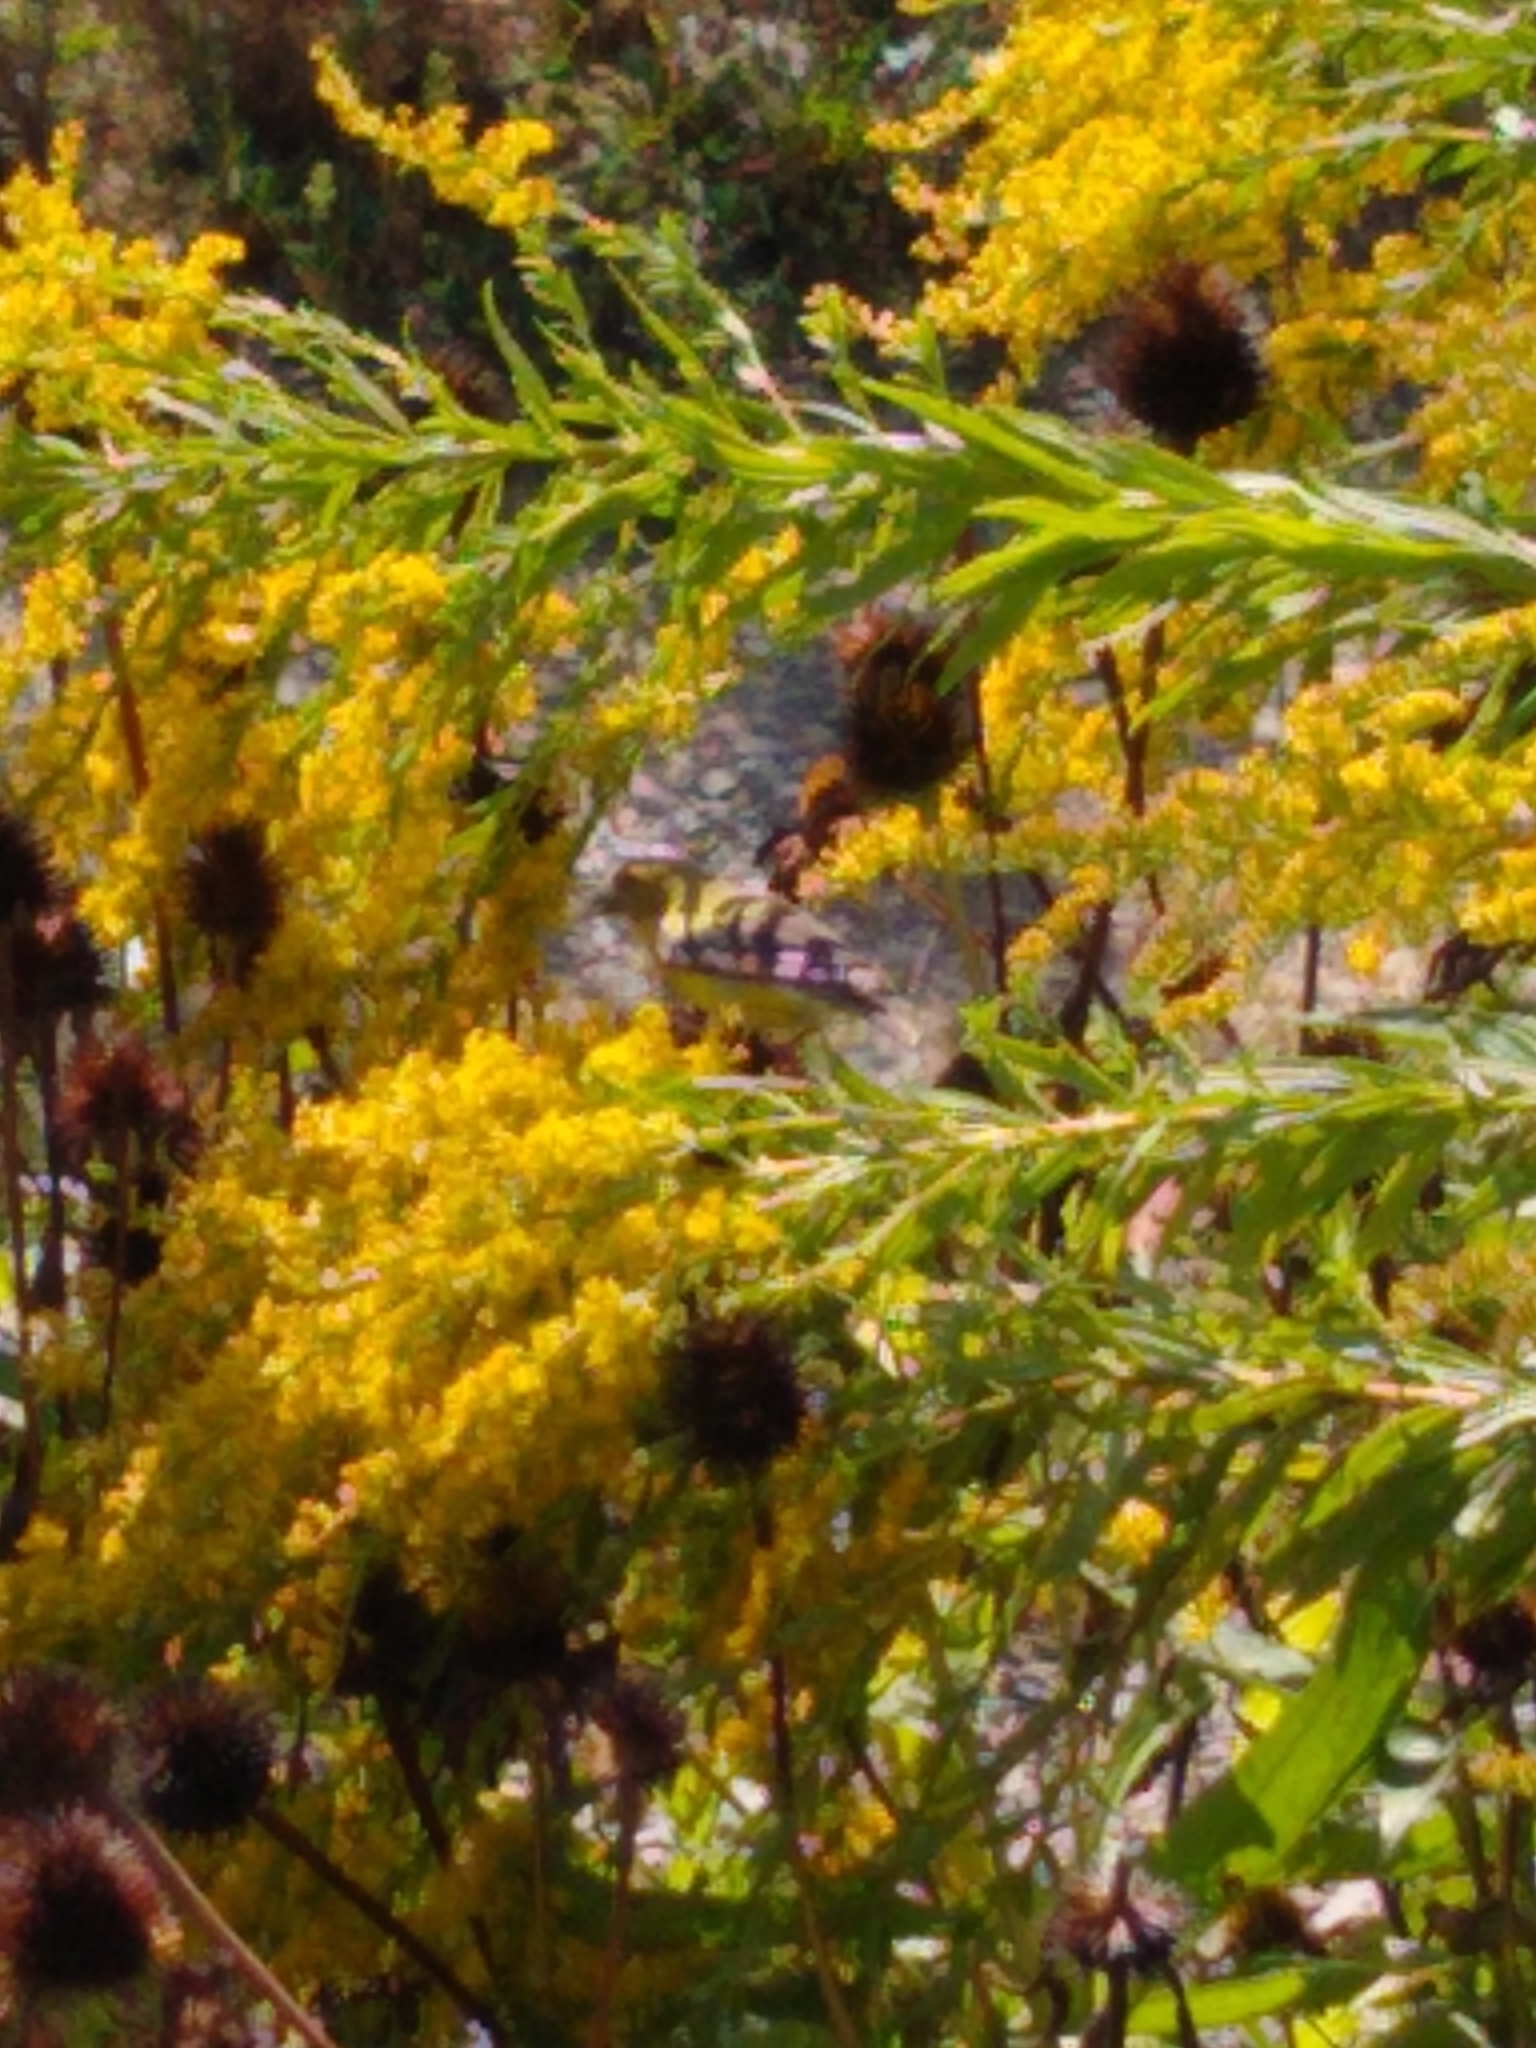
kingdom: Animalia
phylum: Chordata
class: Aves
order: Passeriformes
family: Fringillidae
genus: Spinus
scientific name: Spinus tristis
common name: American goldfinch
